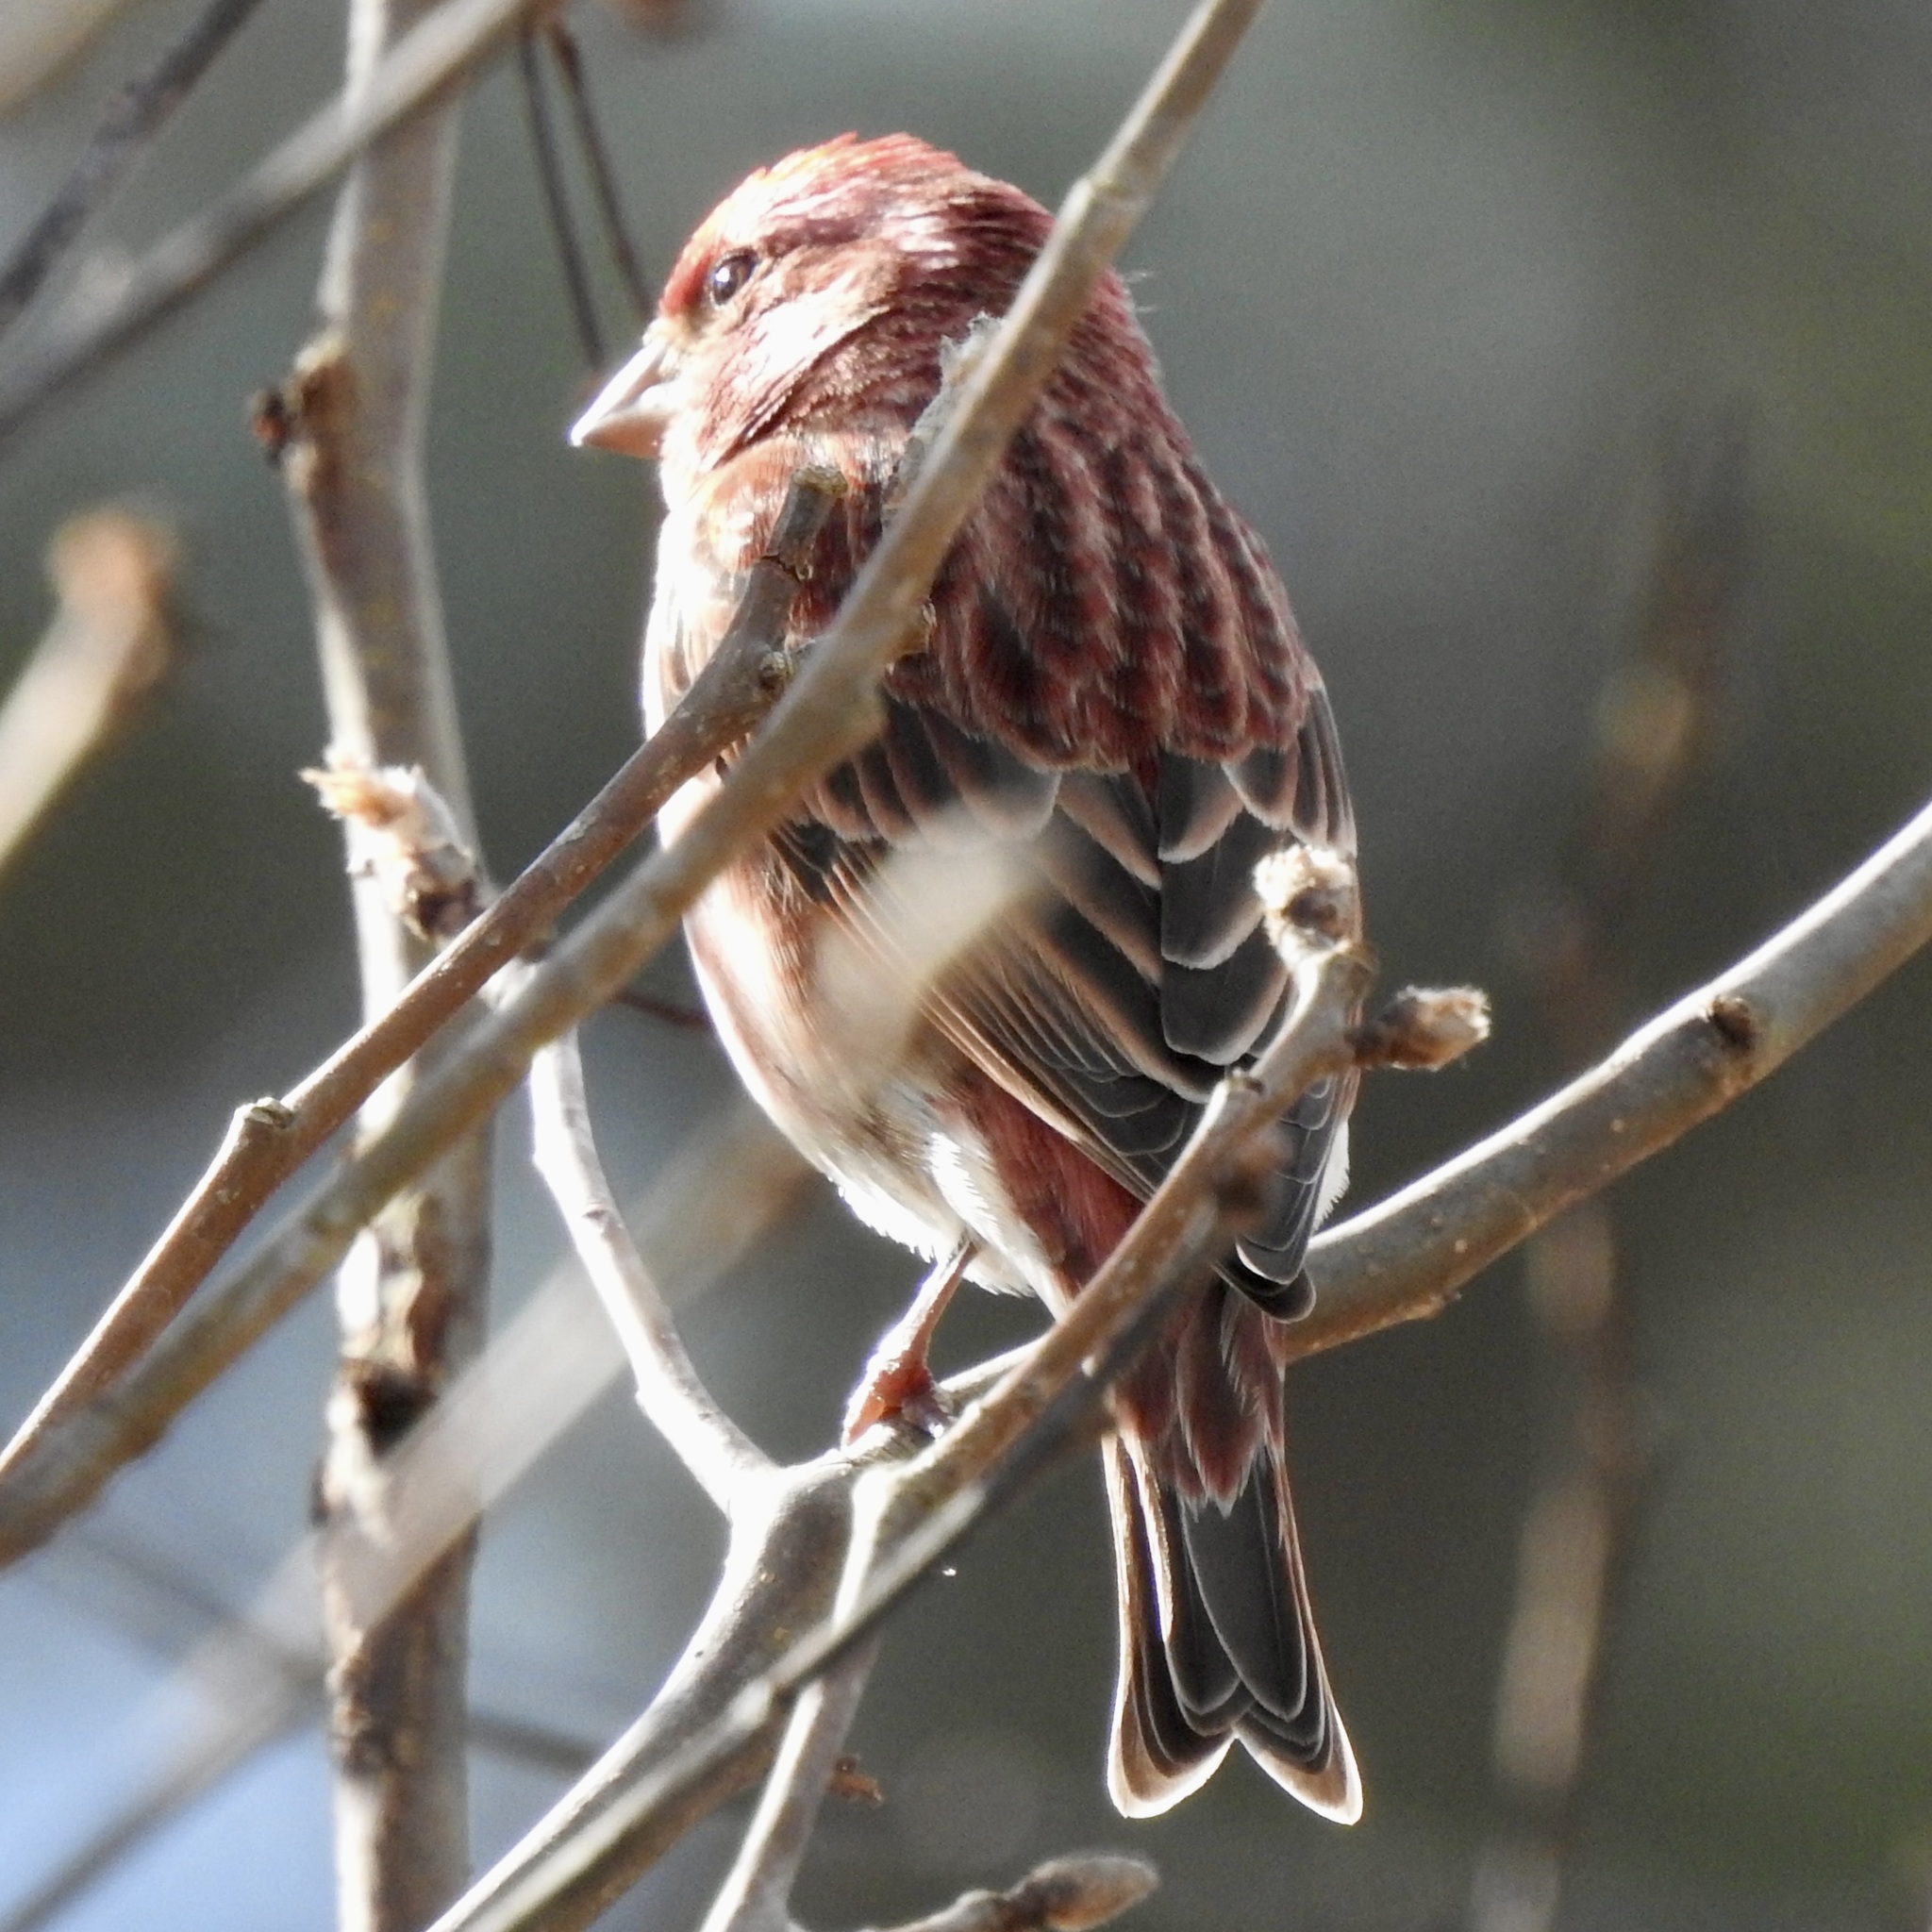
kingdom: Animalia
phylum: Chordata
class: Aves
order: Passeriformes
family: Fringillidae
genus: Haemorhous
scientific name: Haemorhous purpureus
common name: Purple finch
